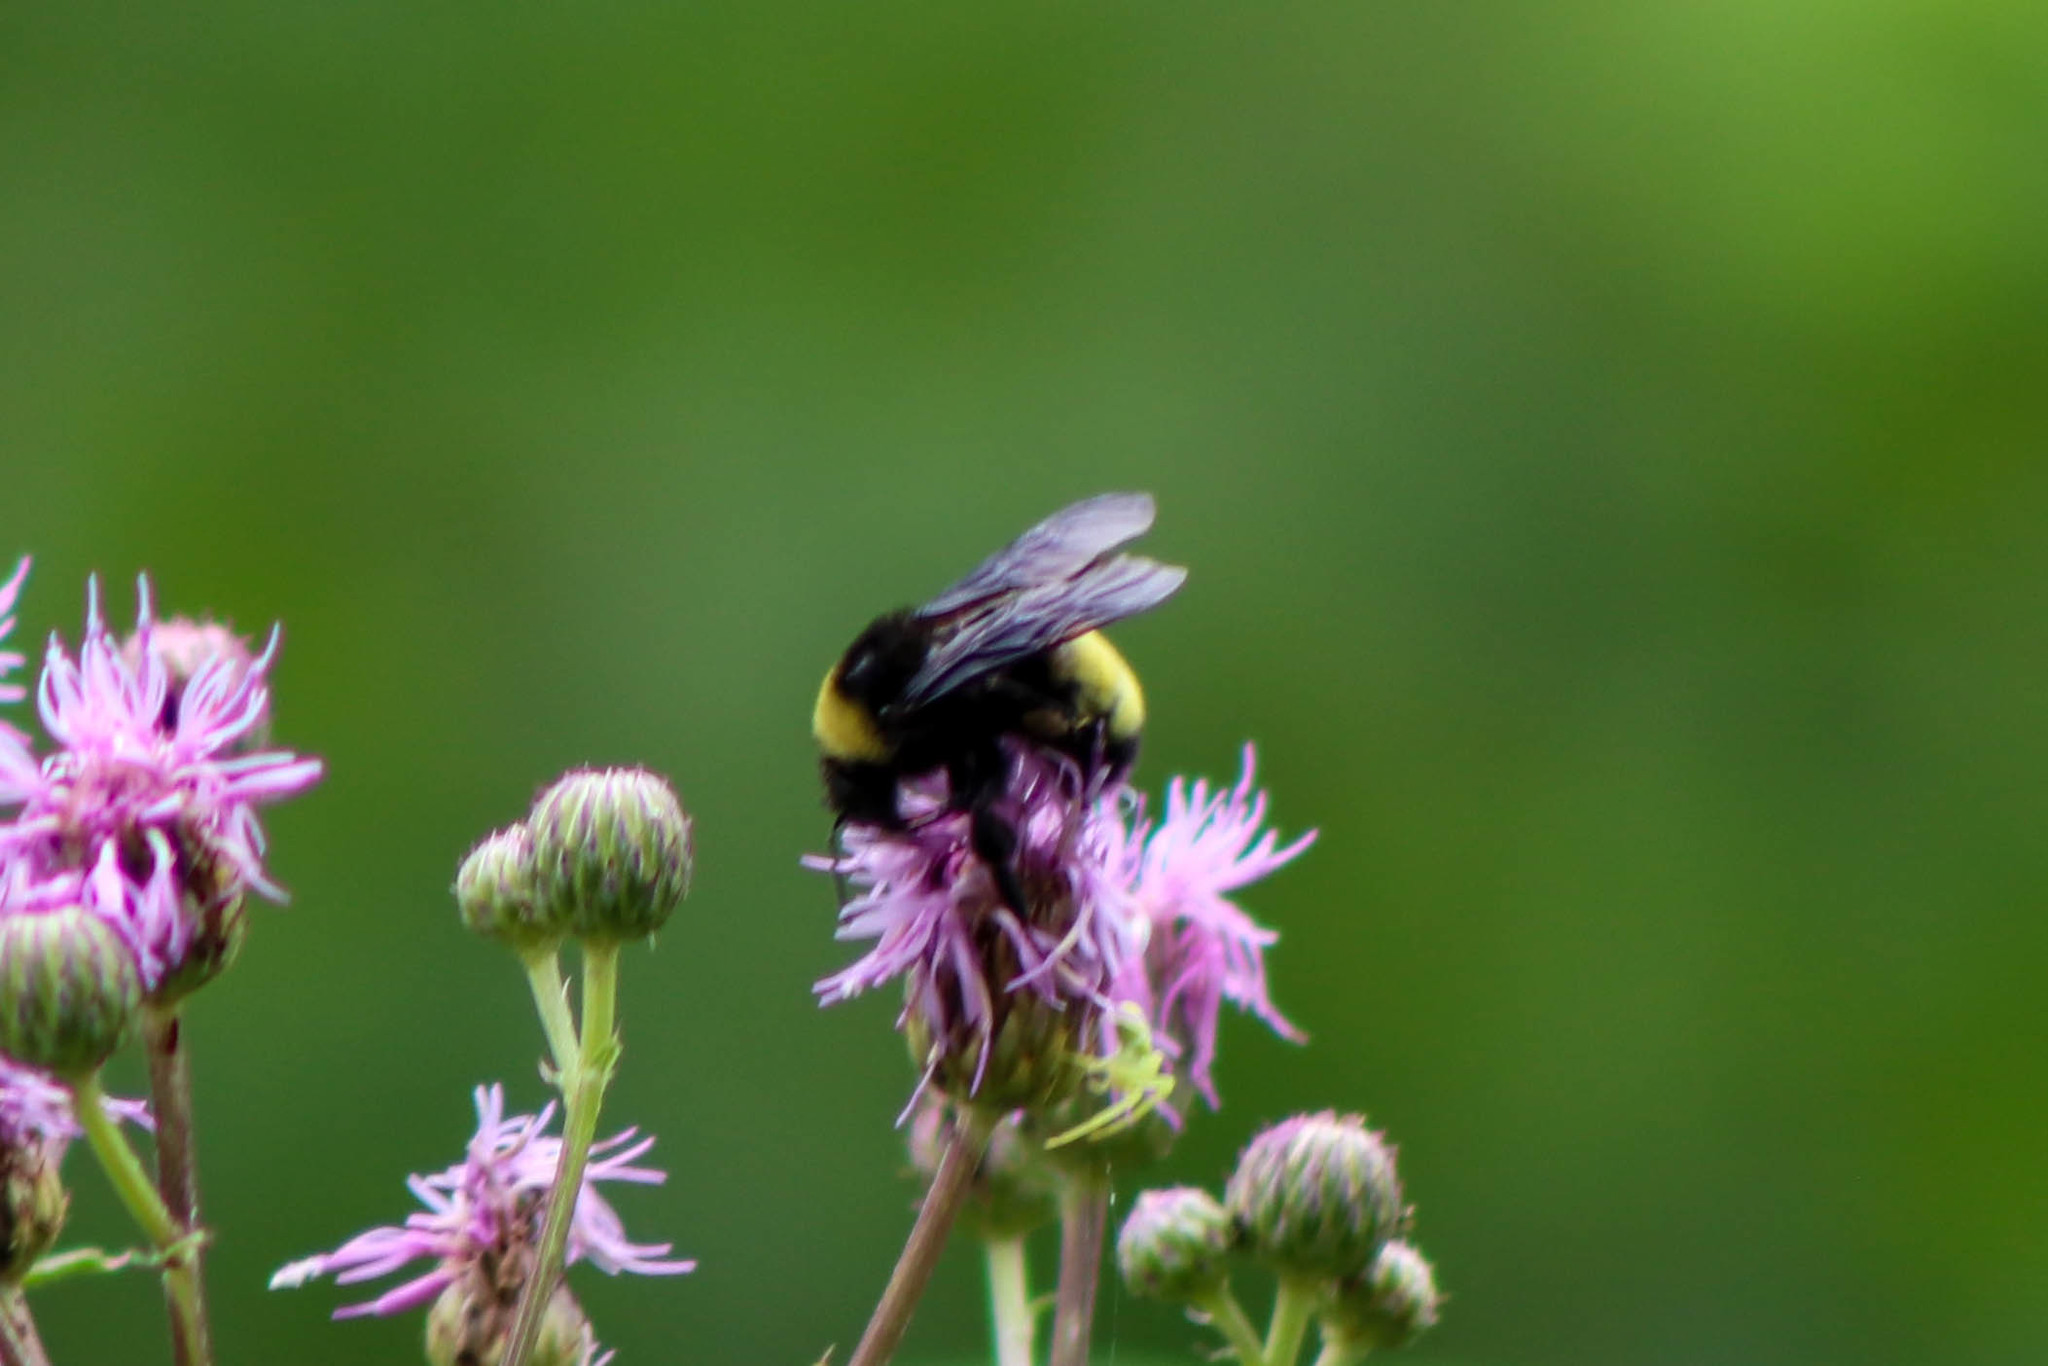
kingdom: Animalia
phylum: Arthropoda
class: Insecta
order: Hymenoptera
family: Apidae
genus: Bombus
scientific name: Bombus auricomus
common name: Black and gold bumble bee
